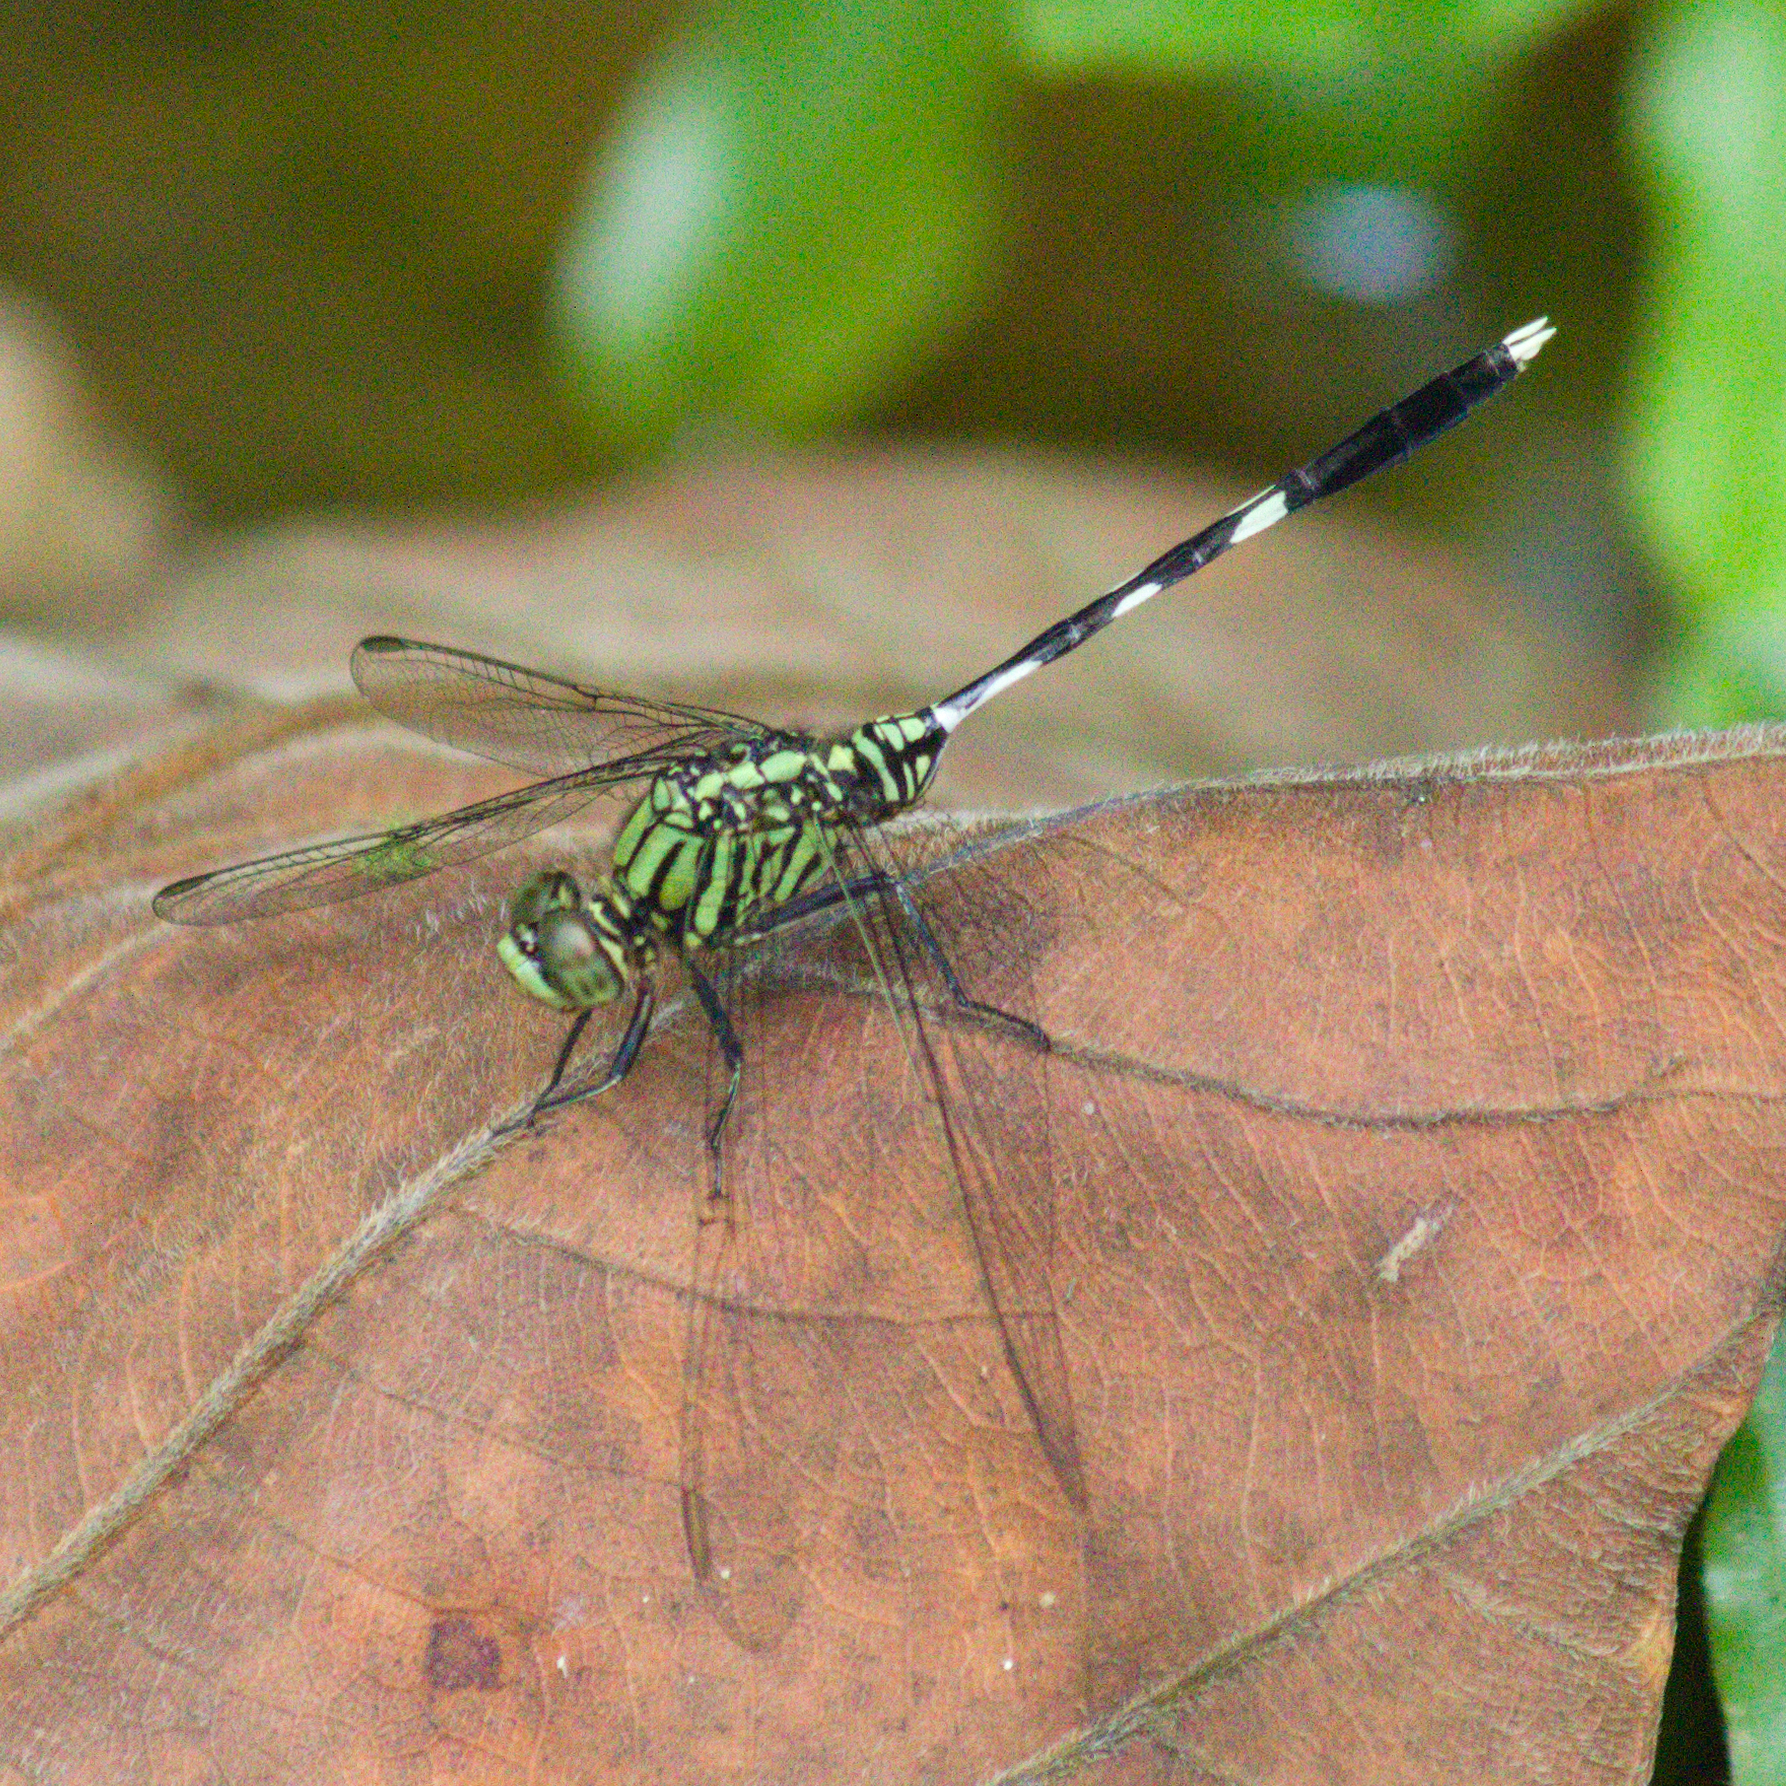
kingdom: Animalia
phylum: Arthropoda
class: Insecta
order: Odonata
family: Libellulidae
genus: Orthetrum
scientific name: Orthetrum sabina
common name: Slender skimmer
